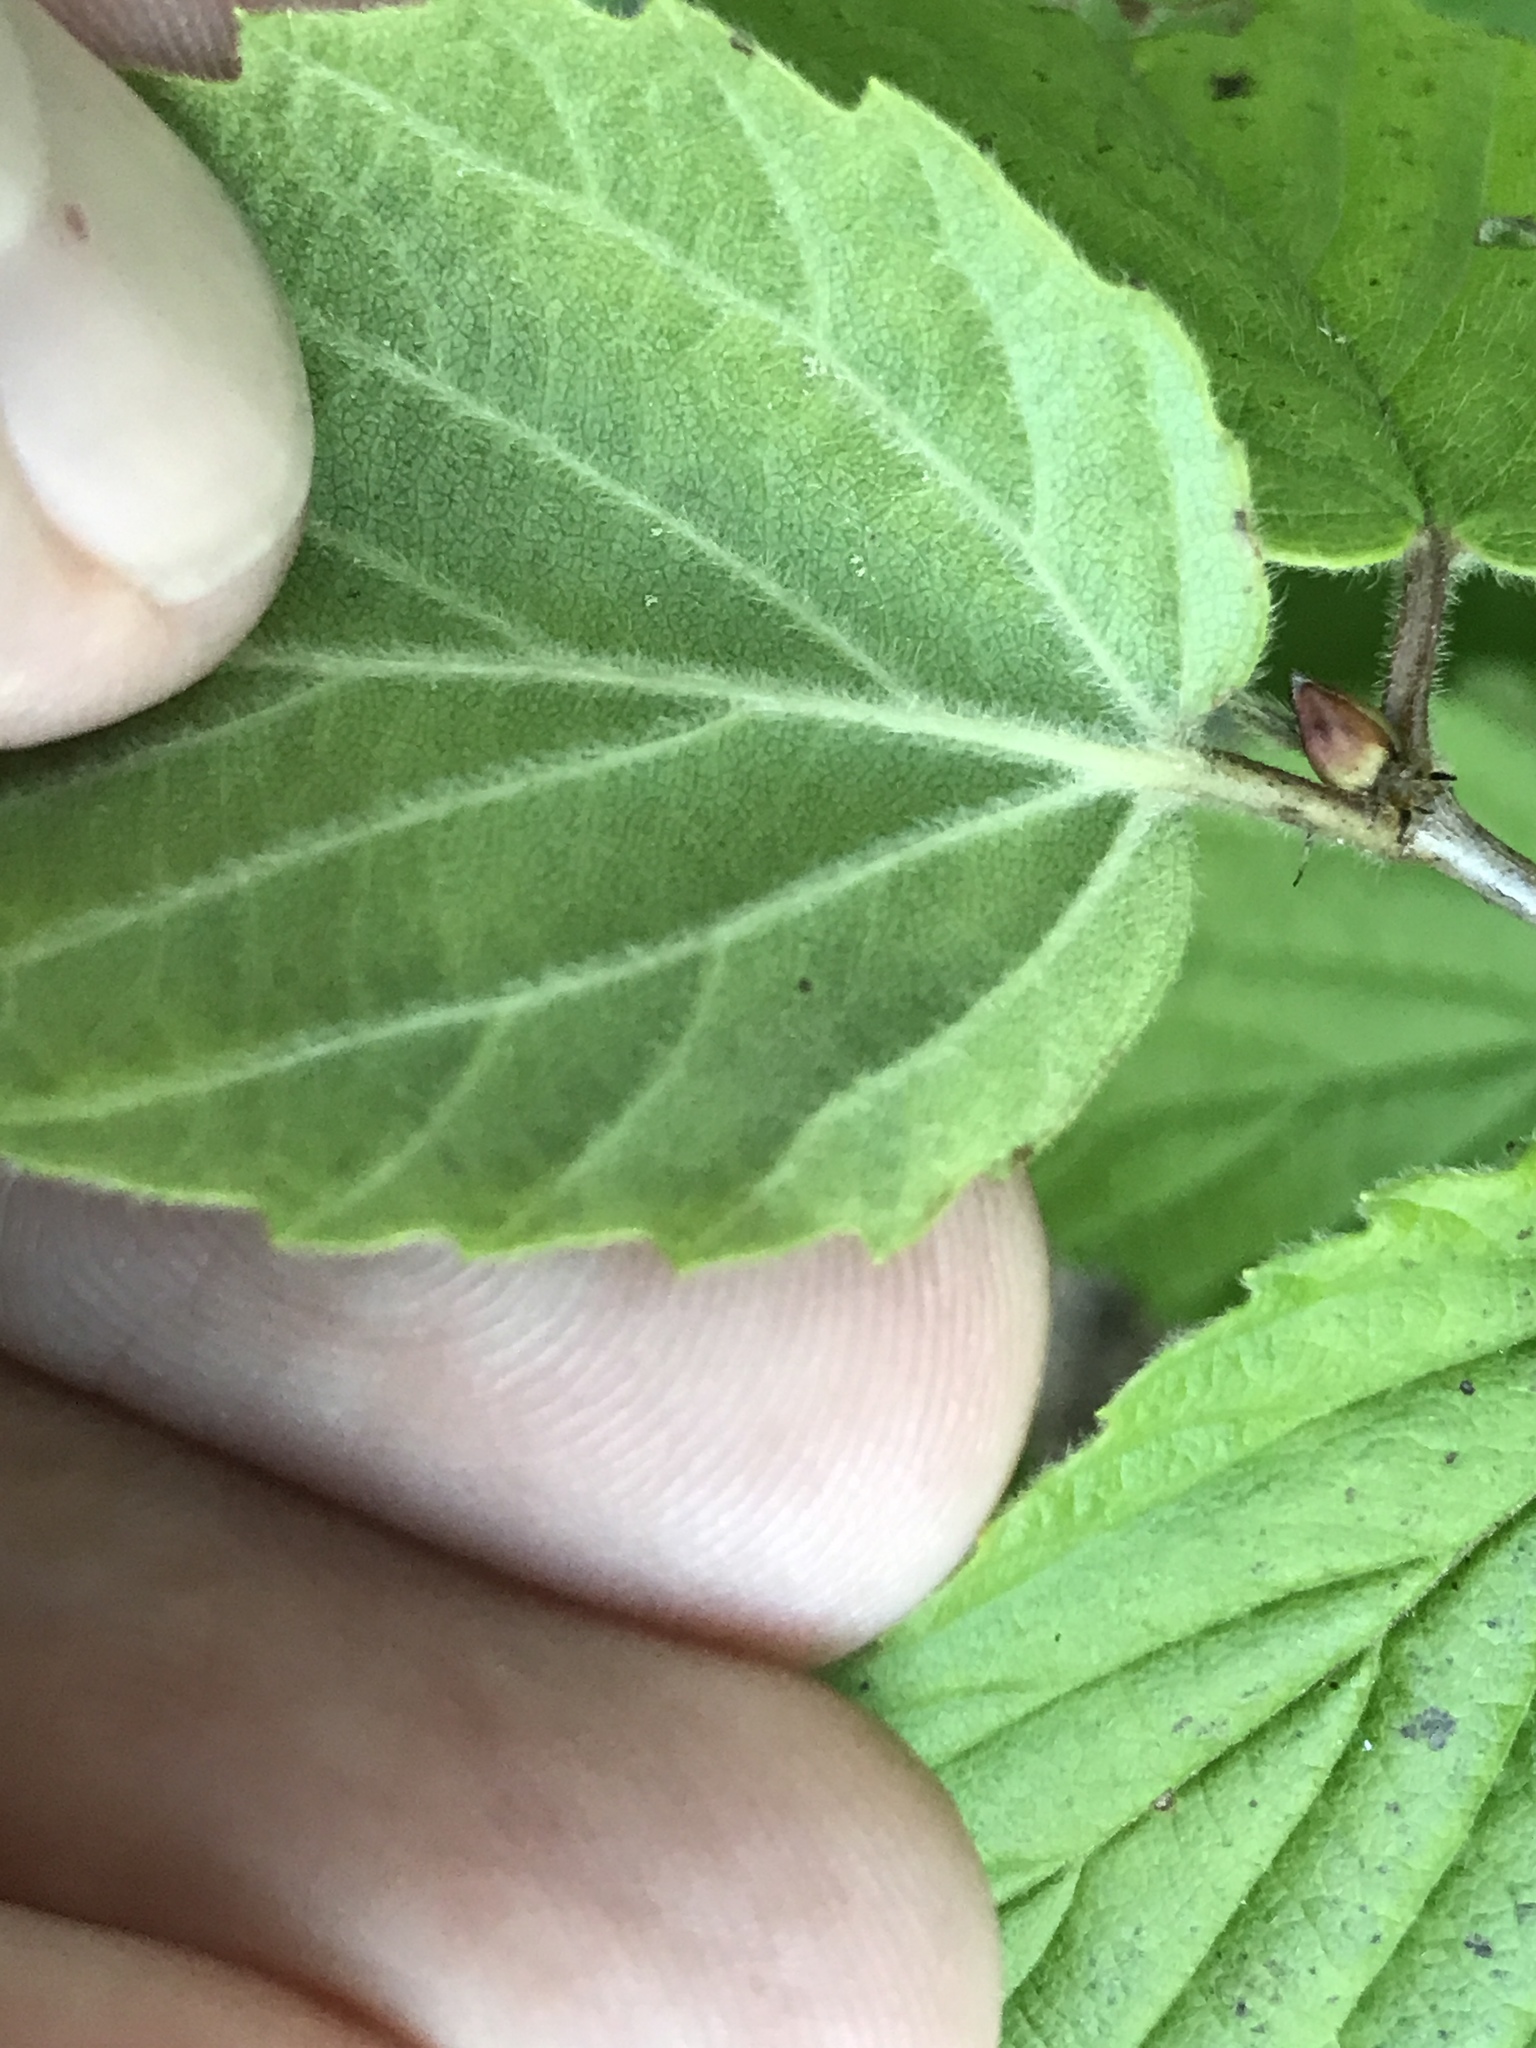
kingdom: Plantae
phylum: Tracheophyta
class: Magnoliopsida
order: Dipsacales
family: Viburnaceae
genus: Viburnum
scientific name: Viburnum rafinesqueanum
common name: Downy arrow-wood
